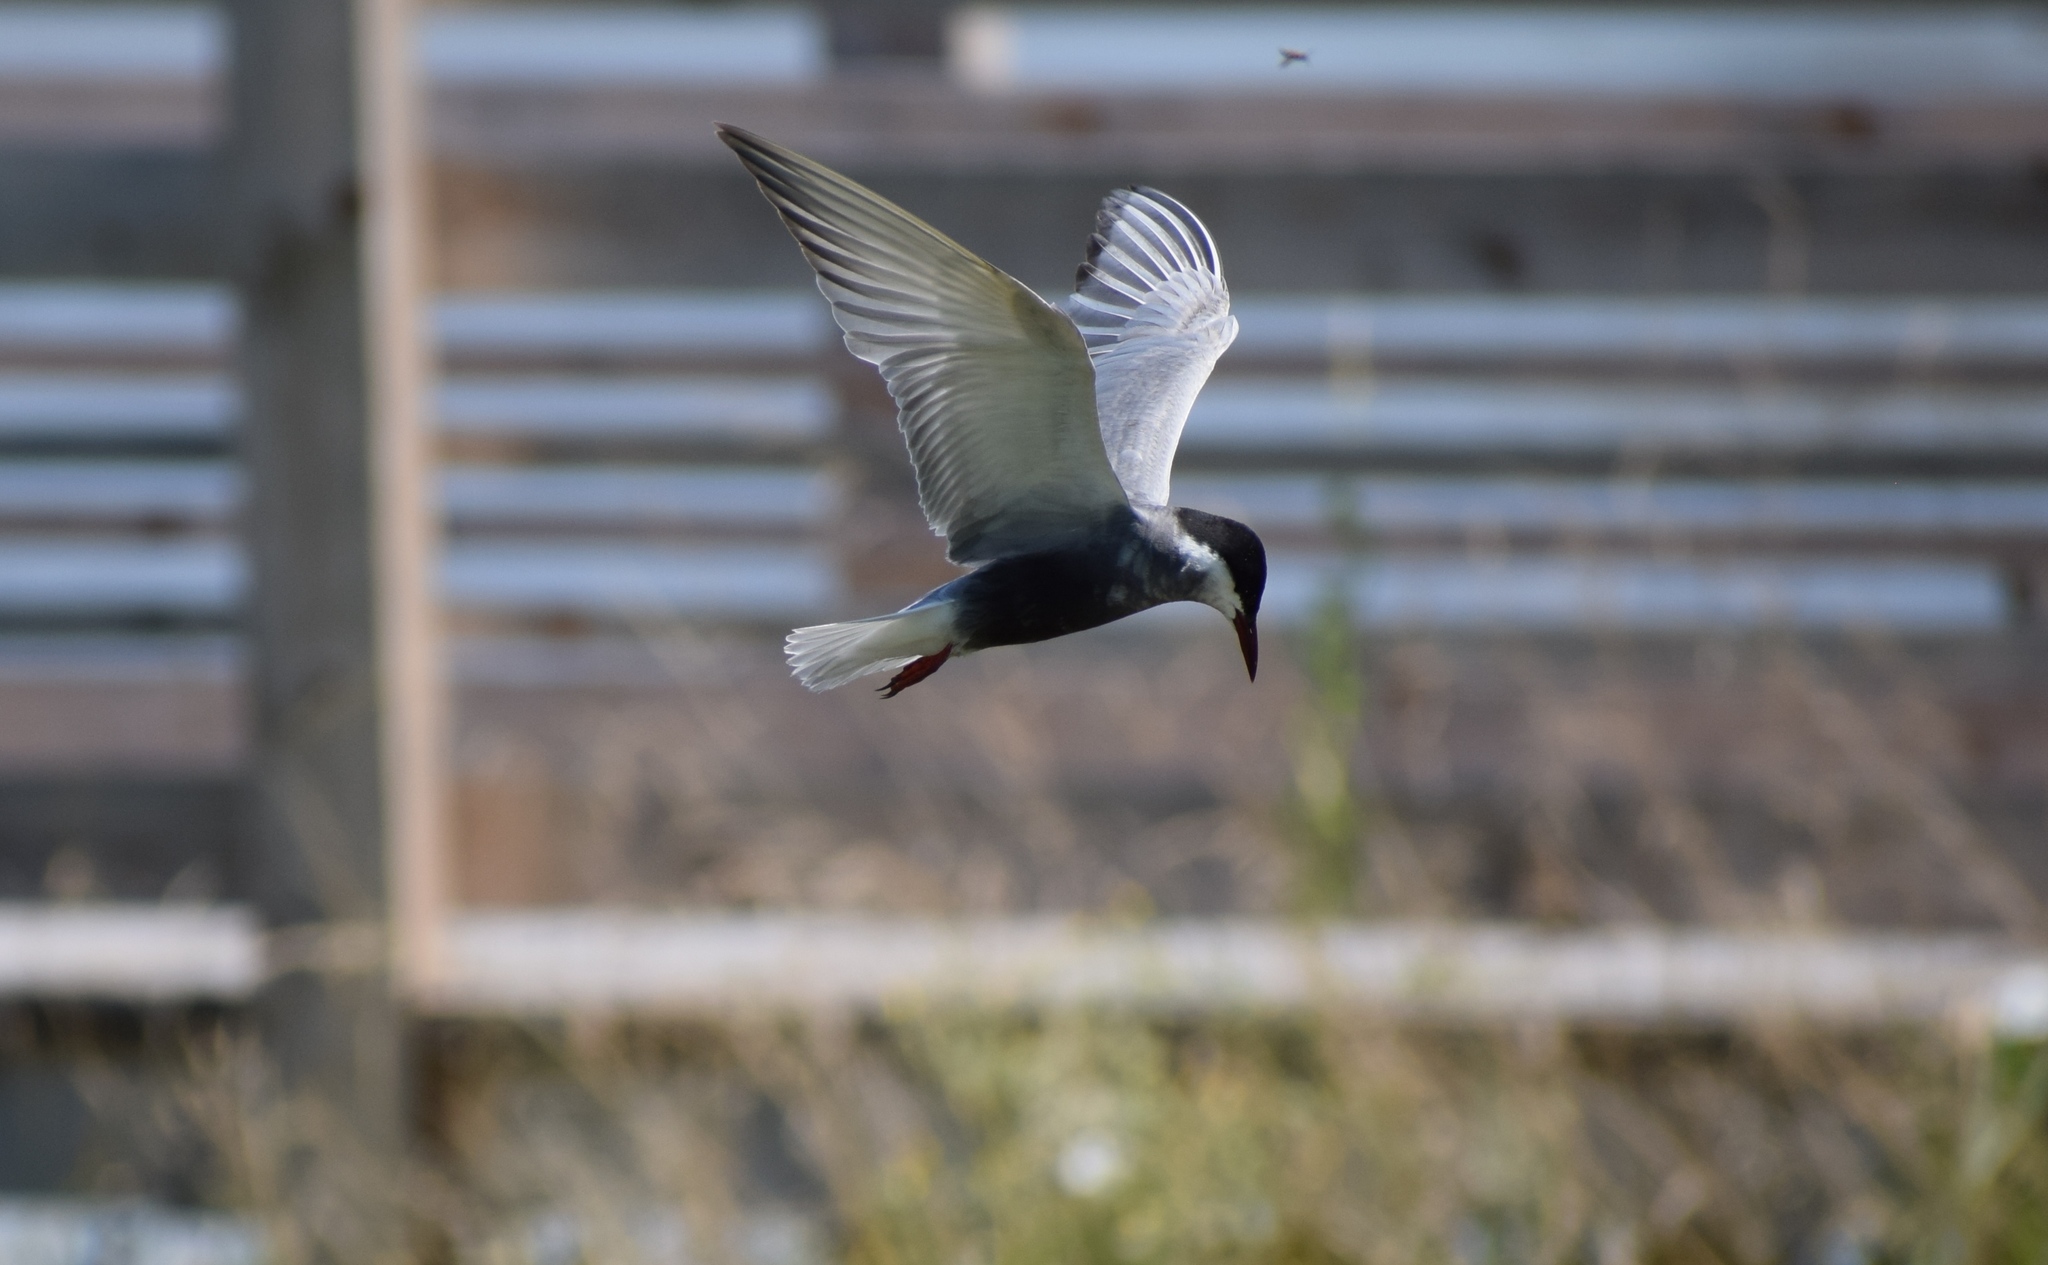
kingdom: Animalia
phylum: Chordata
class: Aves
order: Charadriiformes
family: Laridae
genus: Chlidonias
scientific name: Chlidonias hybrida
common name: Whiskered tern
